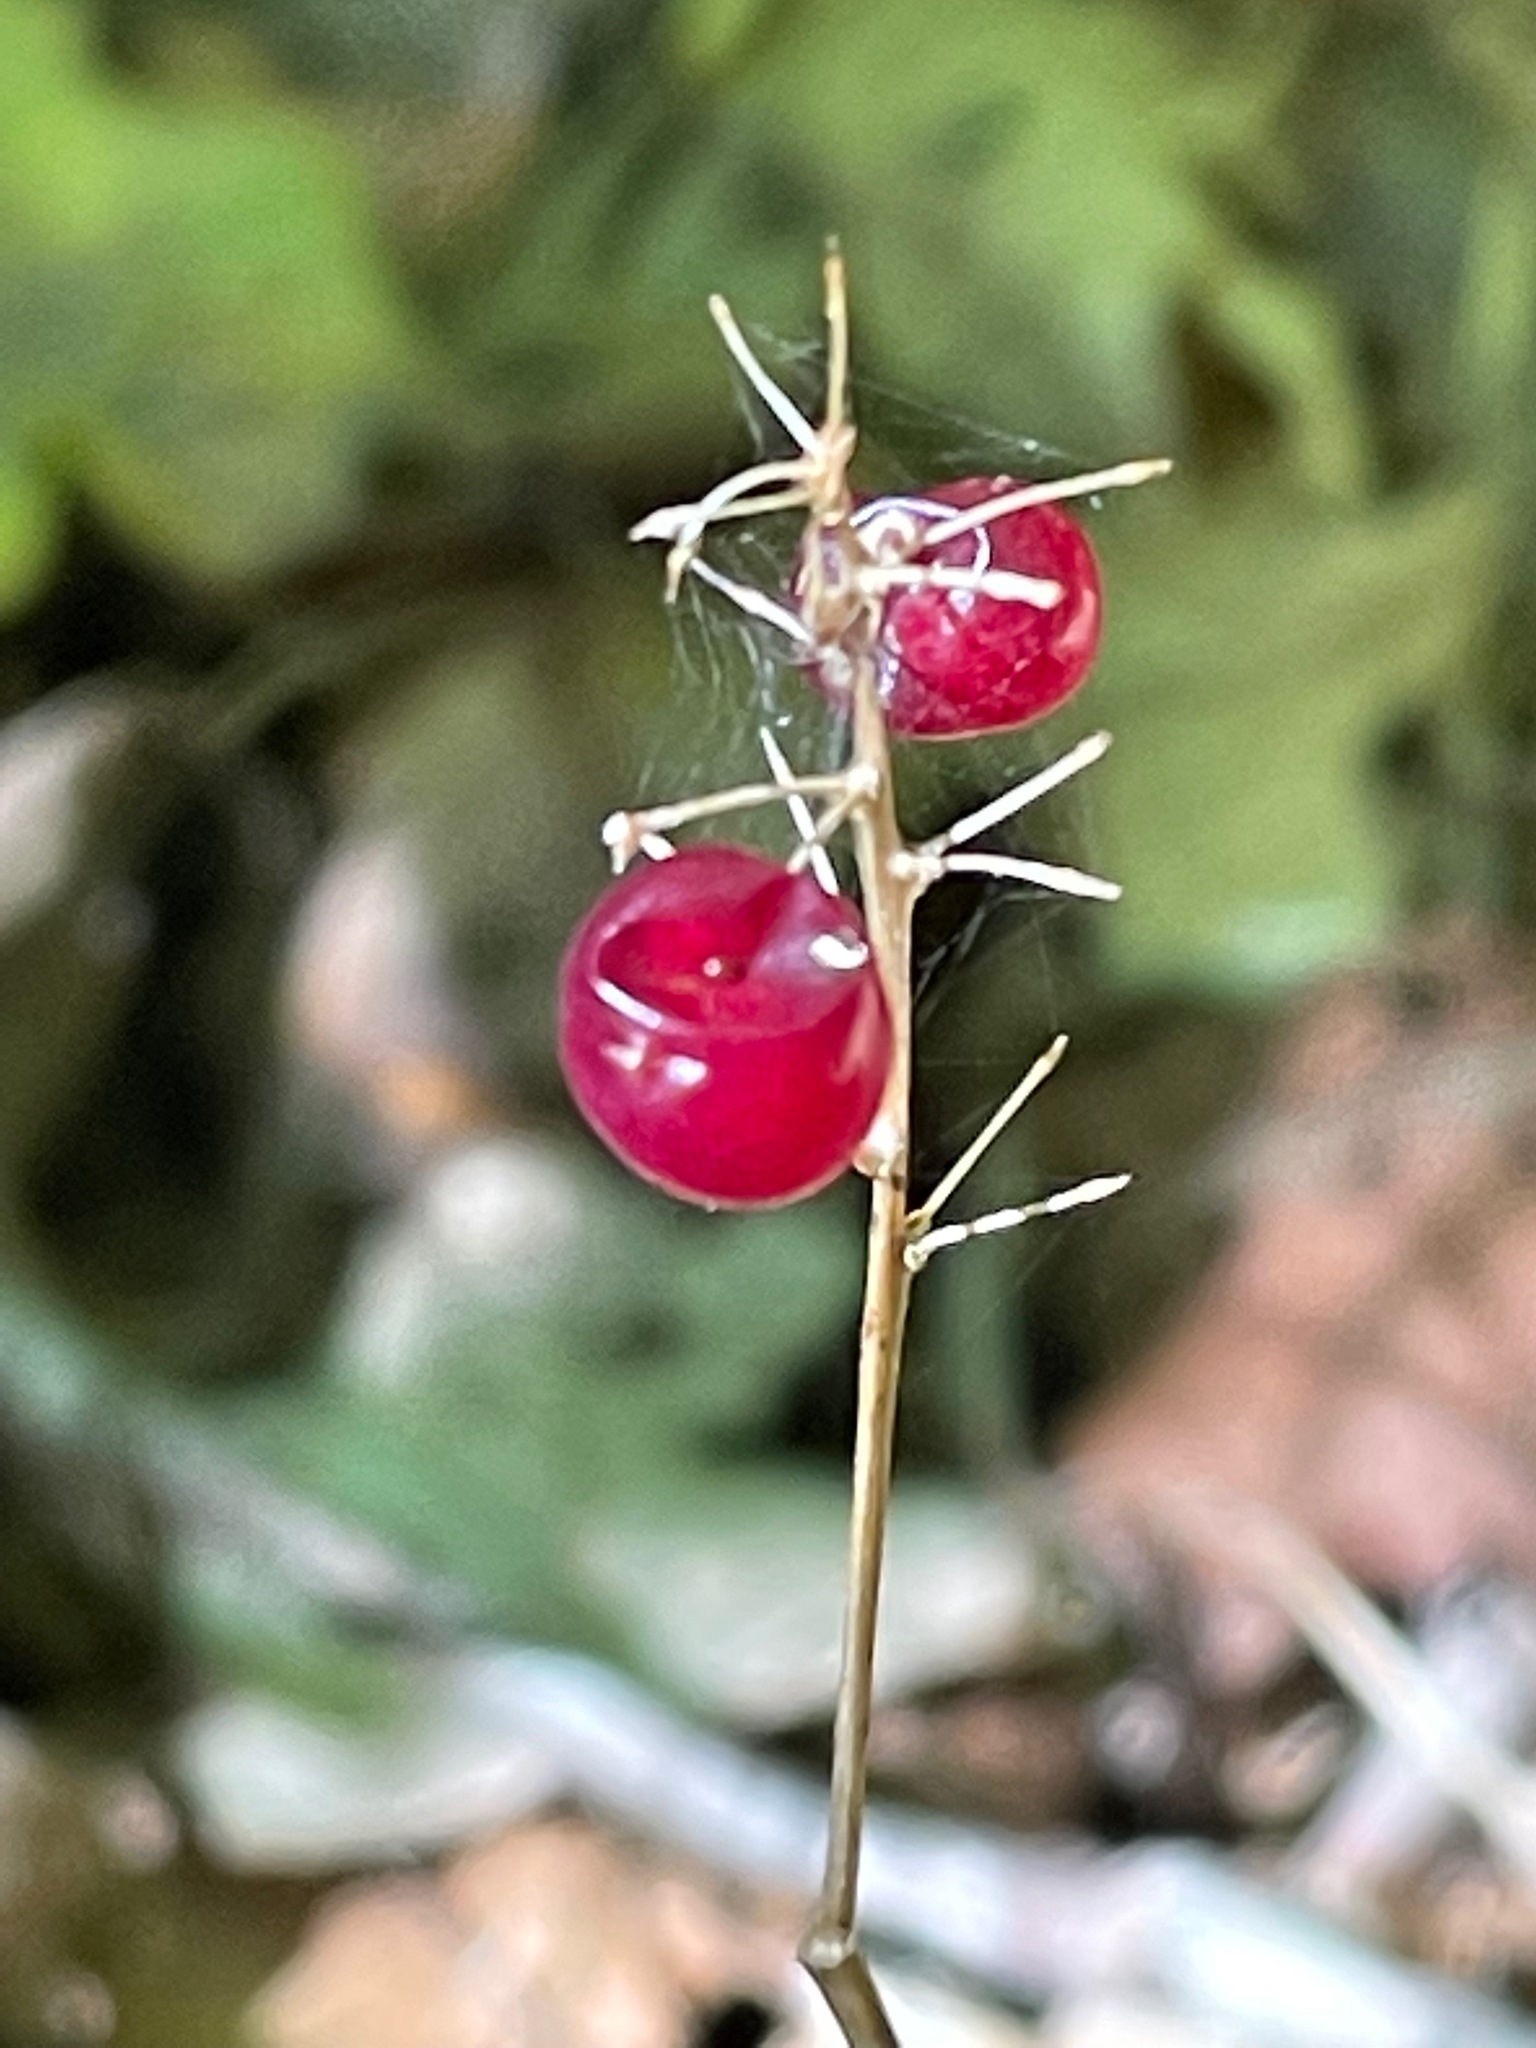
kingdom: Plantae
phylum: Tracheophyta
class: Liliopsida
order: Asparagales
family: Asparagaceae
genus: Maianthemum
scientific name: Maianthemum canadense
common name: False lily-of-the-valley
